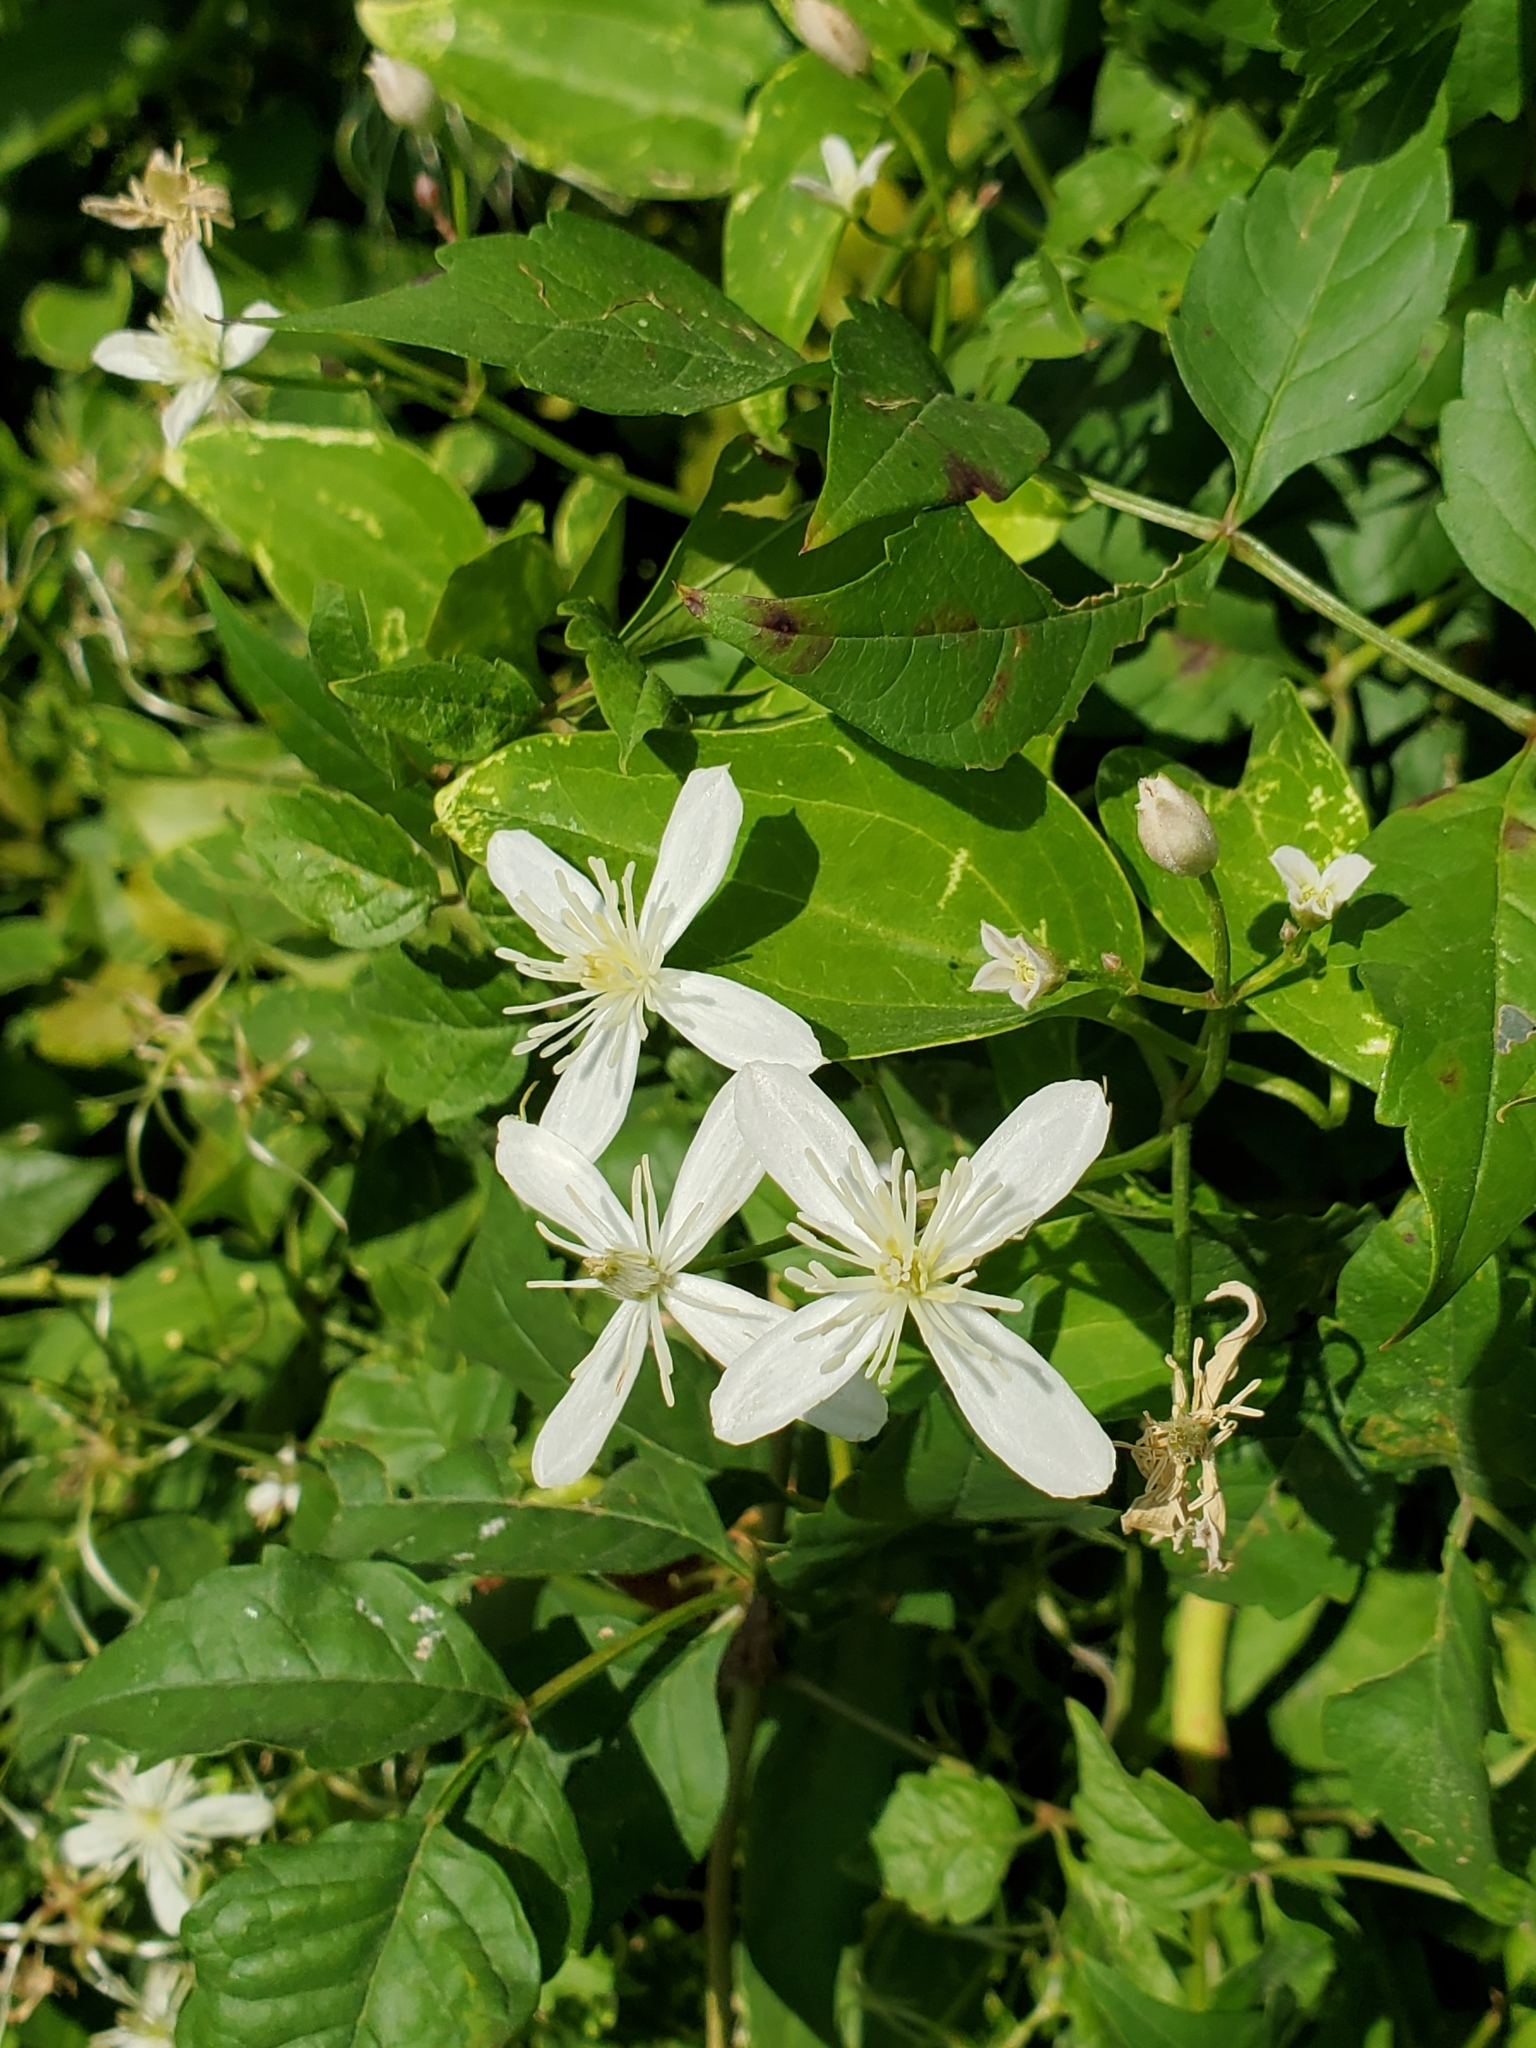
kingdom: Plantae
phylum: Tracheophyta
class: Magnoliopsida
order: Ranunculales
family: Ranunculaceae
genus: Clematis
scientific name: Clematis terniflora
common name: Sweet autumn clematis
